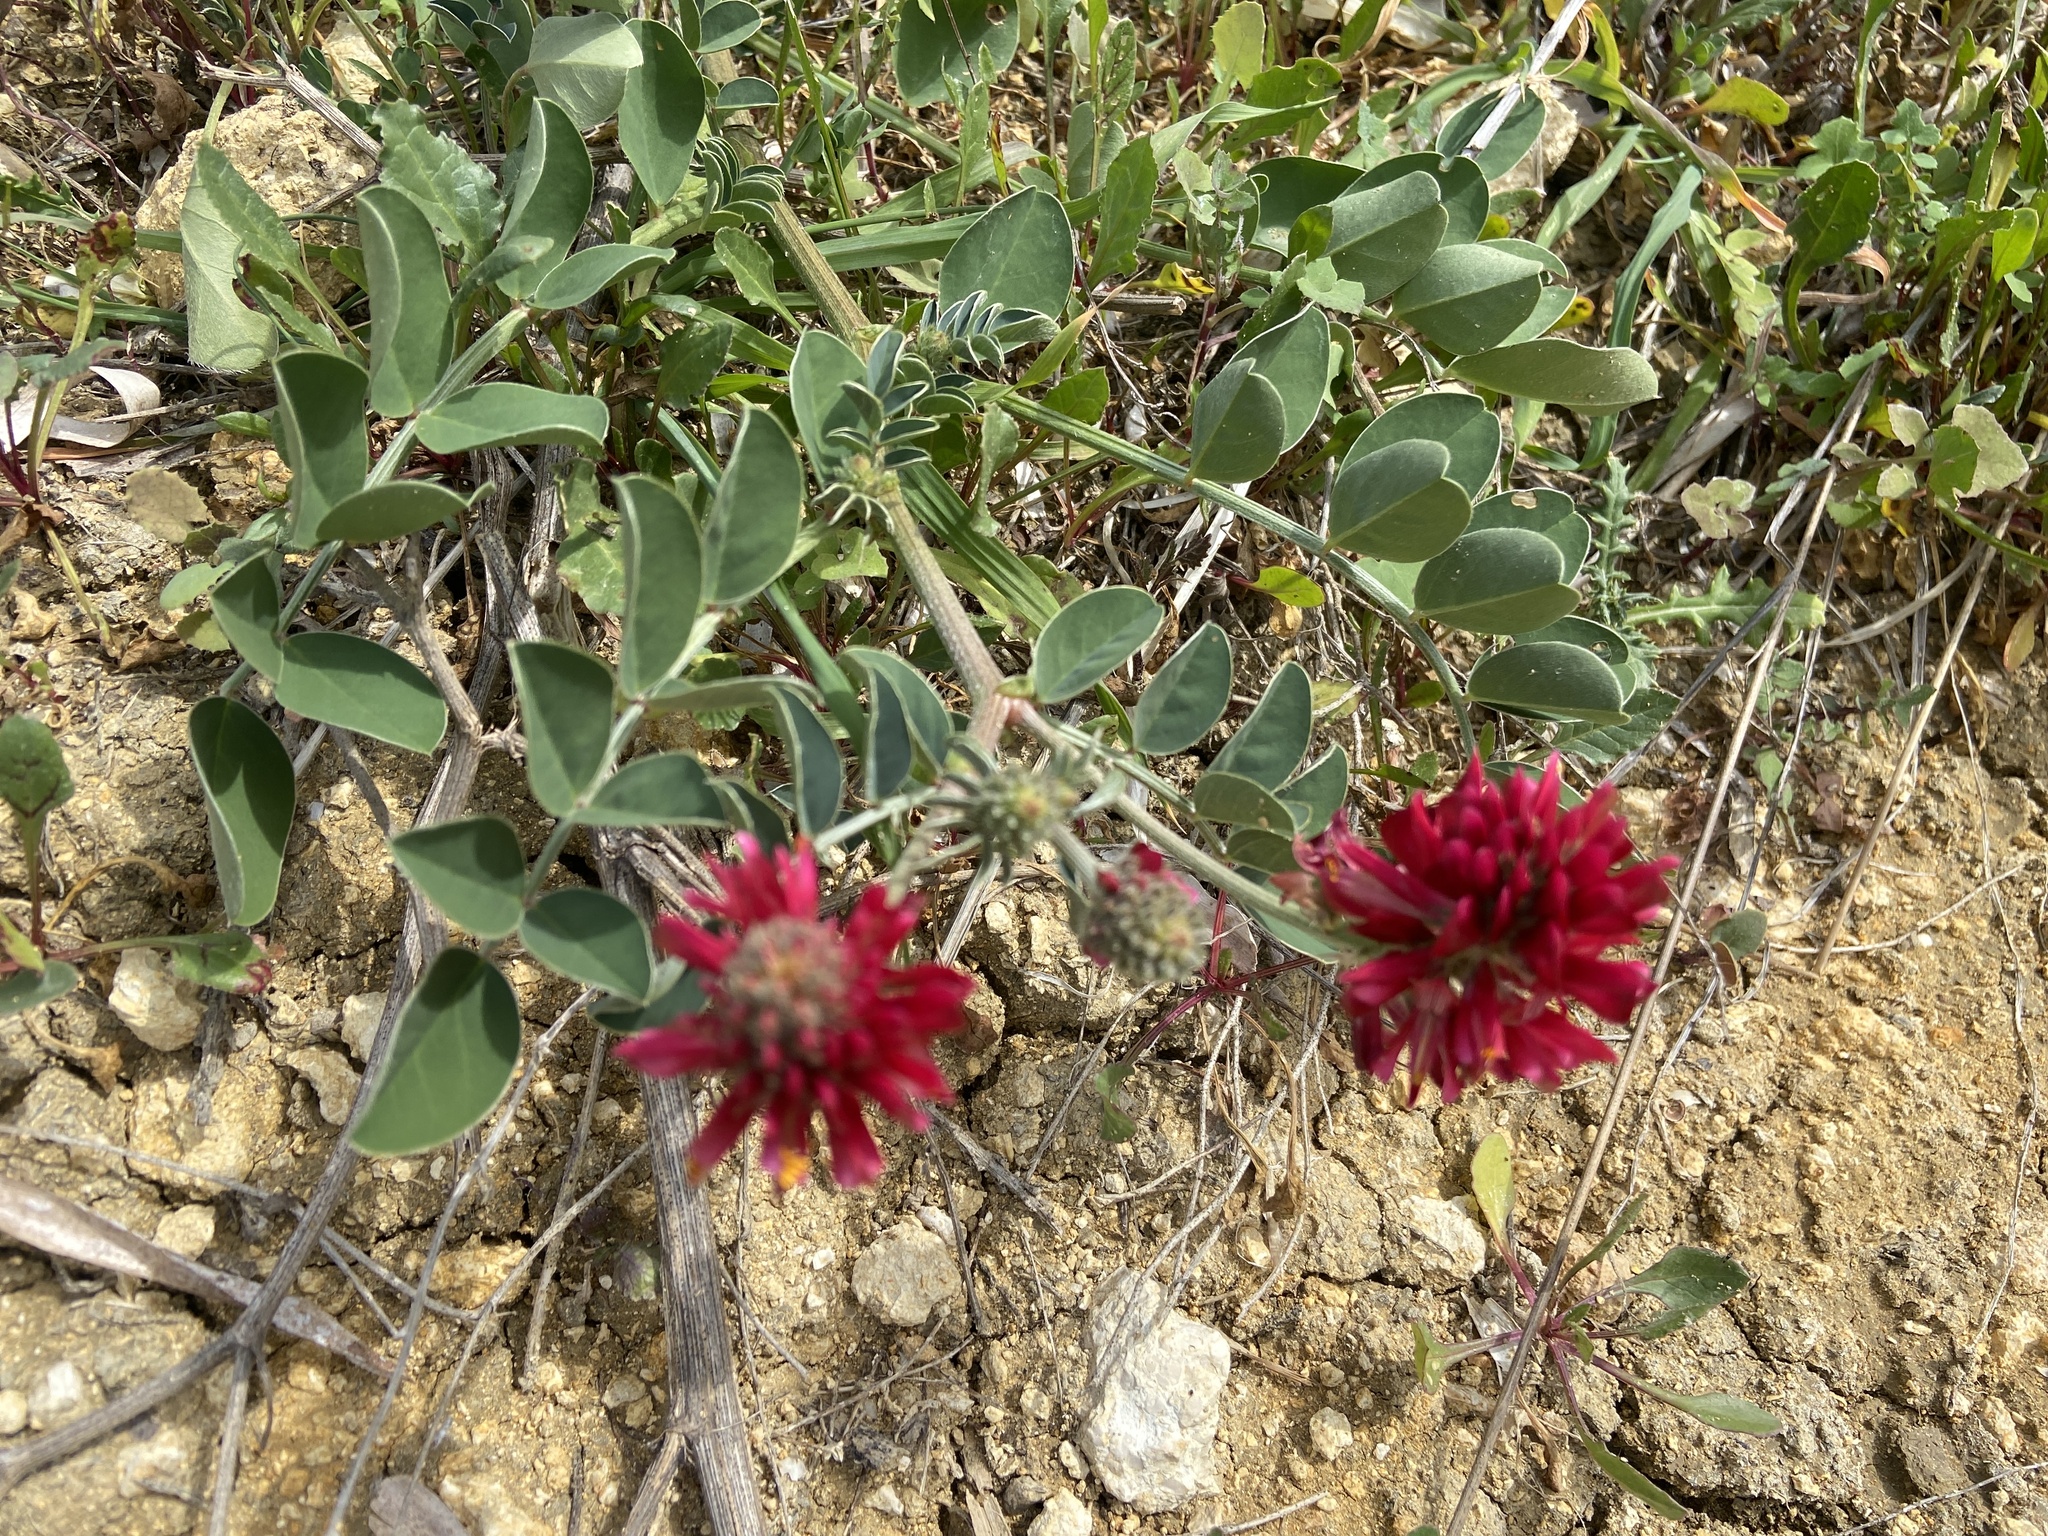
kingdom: Plantae
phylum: Tracheophyta
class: Magnoliopsida
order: Fabales
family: Fabaceae
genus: Sulla
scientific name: Sulla coronaria
